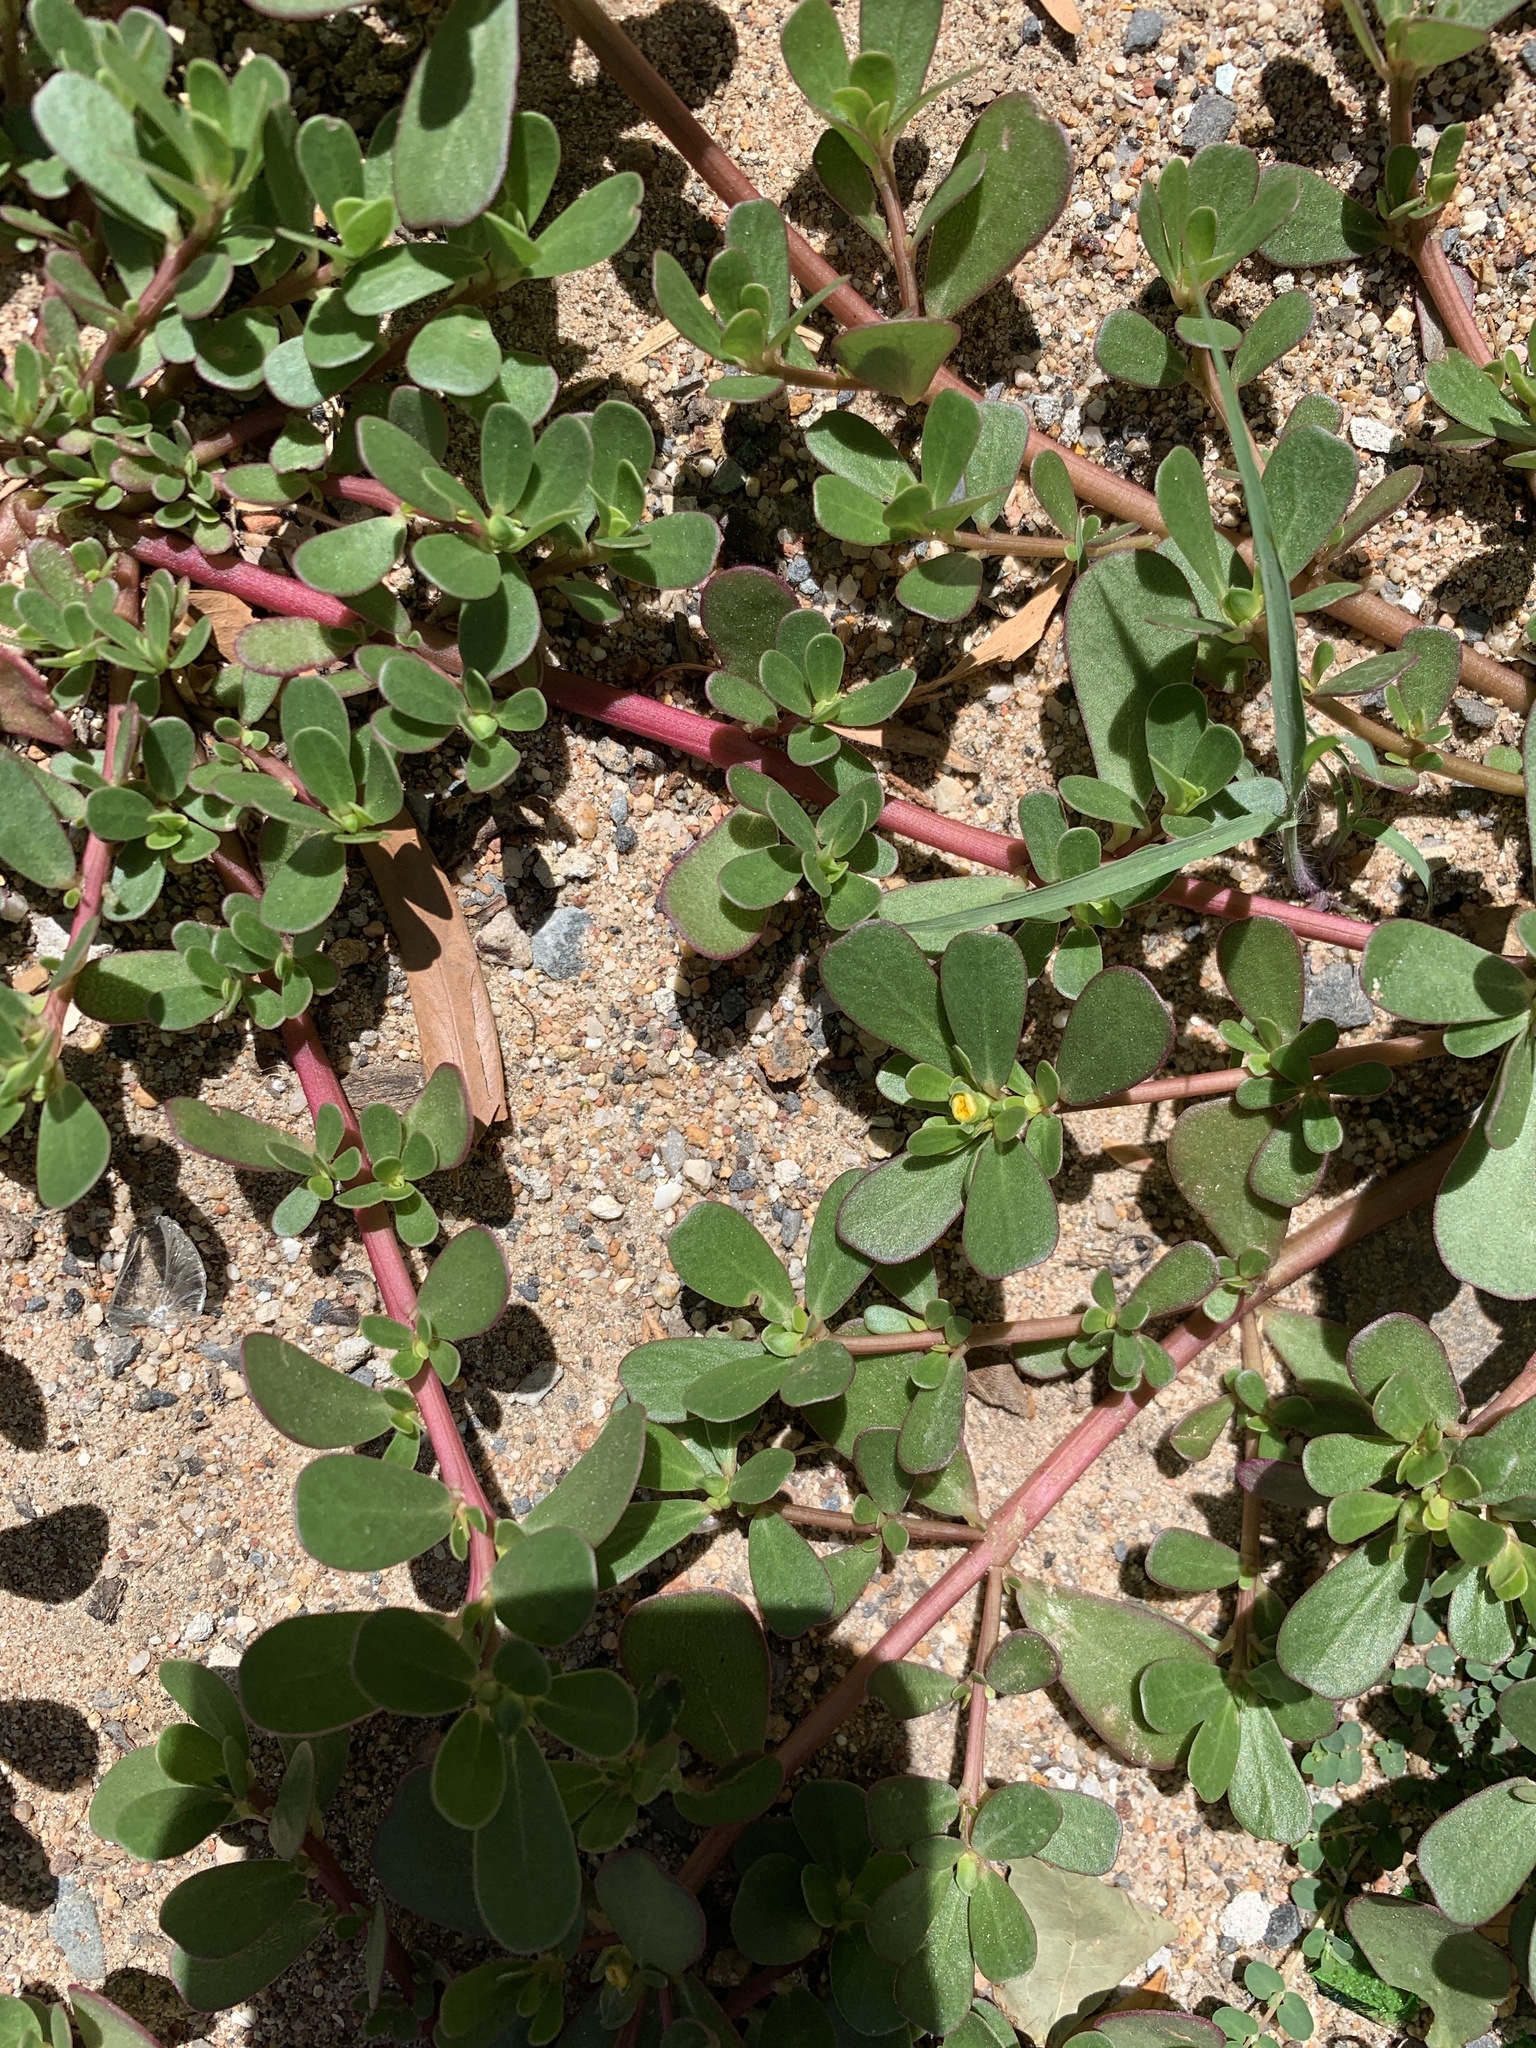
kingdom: Plantae
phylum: Tracheophyta
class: Magnoliopsida
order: Caryophyllales
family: Portulacaceae
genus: Portulaca
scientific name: Portulaca oleracea
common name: Common purslane
